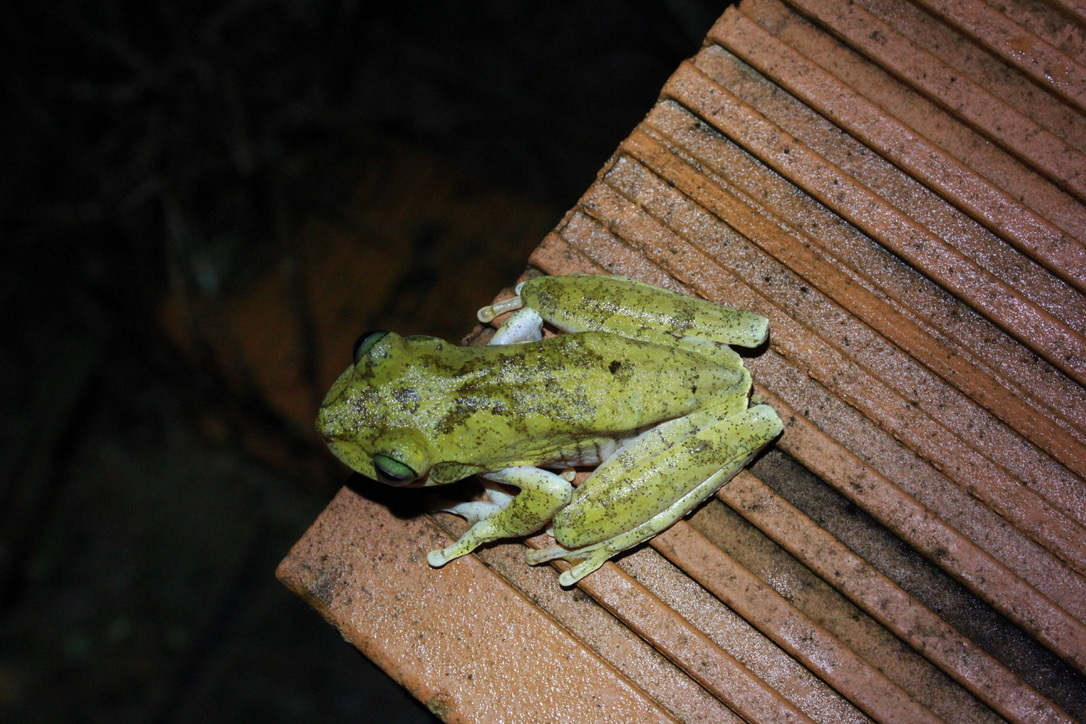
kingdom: Animalia
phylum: Chordata
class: Amphibia
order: Anura
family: Hylidae
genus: Boana
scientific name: Boana platanera
